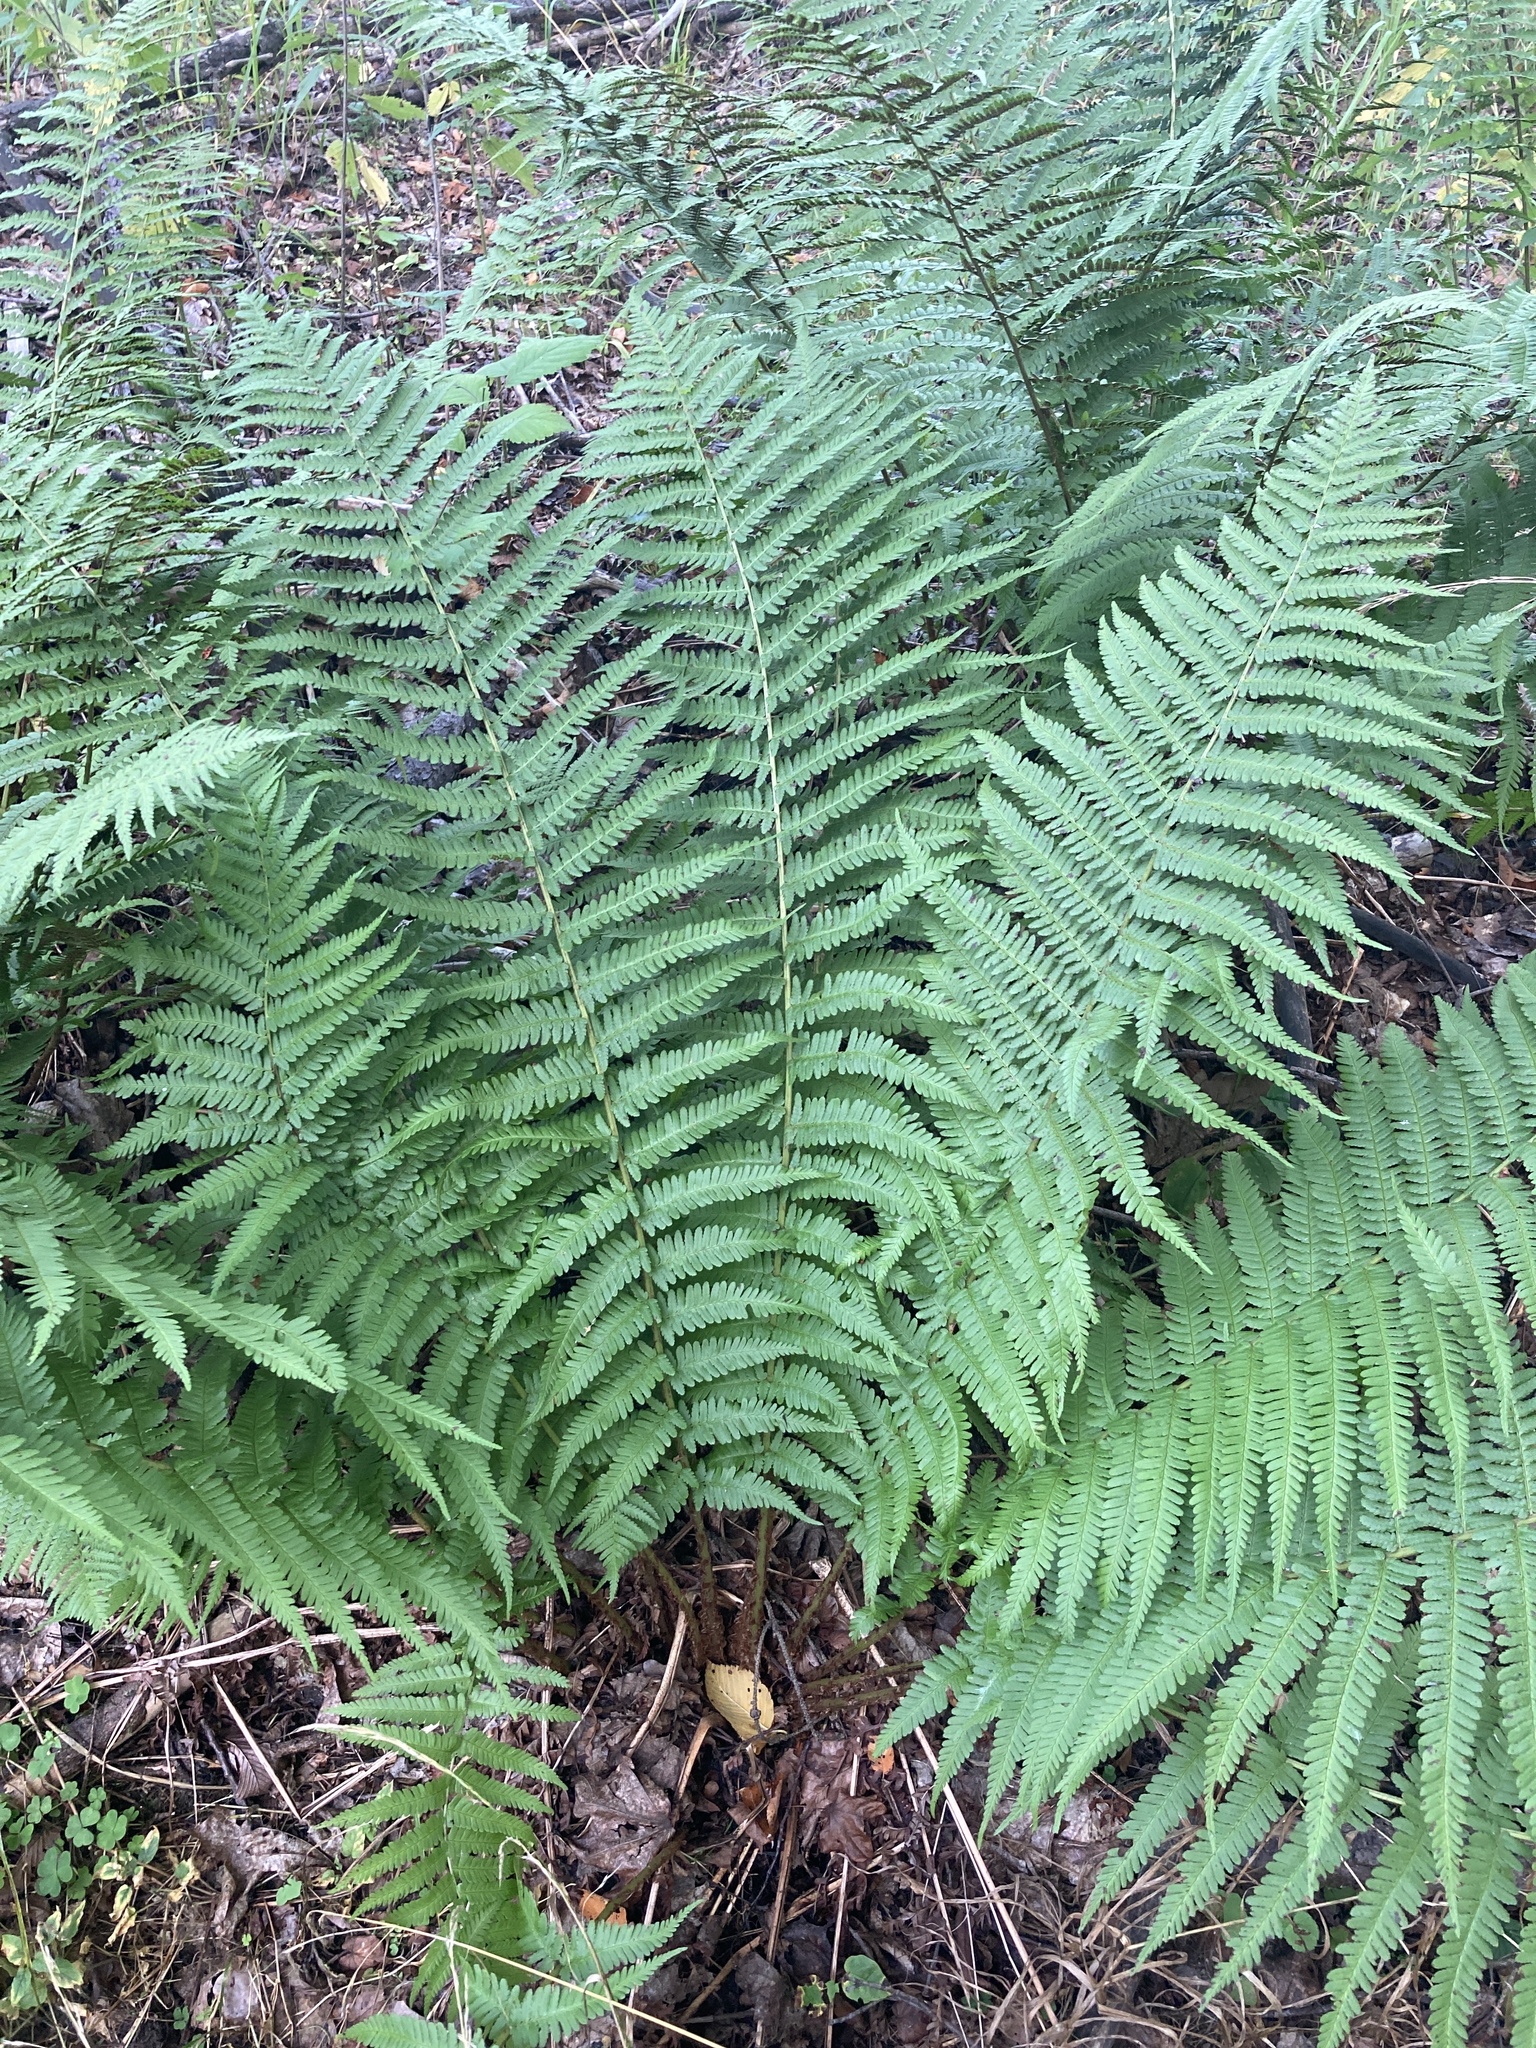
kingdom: Plantae
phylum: Tracheophyta
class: Polypodiopsida
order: Polypodiales
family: Dryopteridaceae
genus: Dryopteris
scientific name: Dryopteris filix-mas
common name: Male fern
